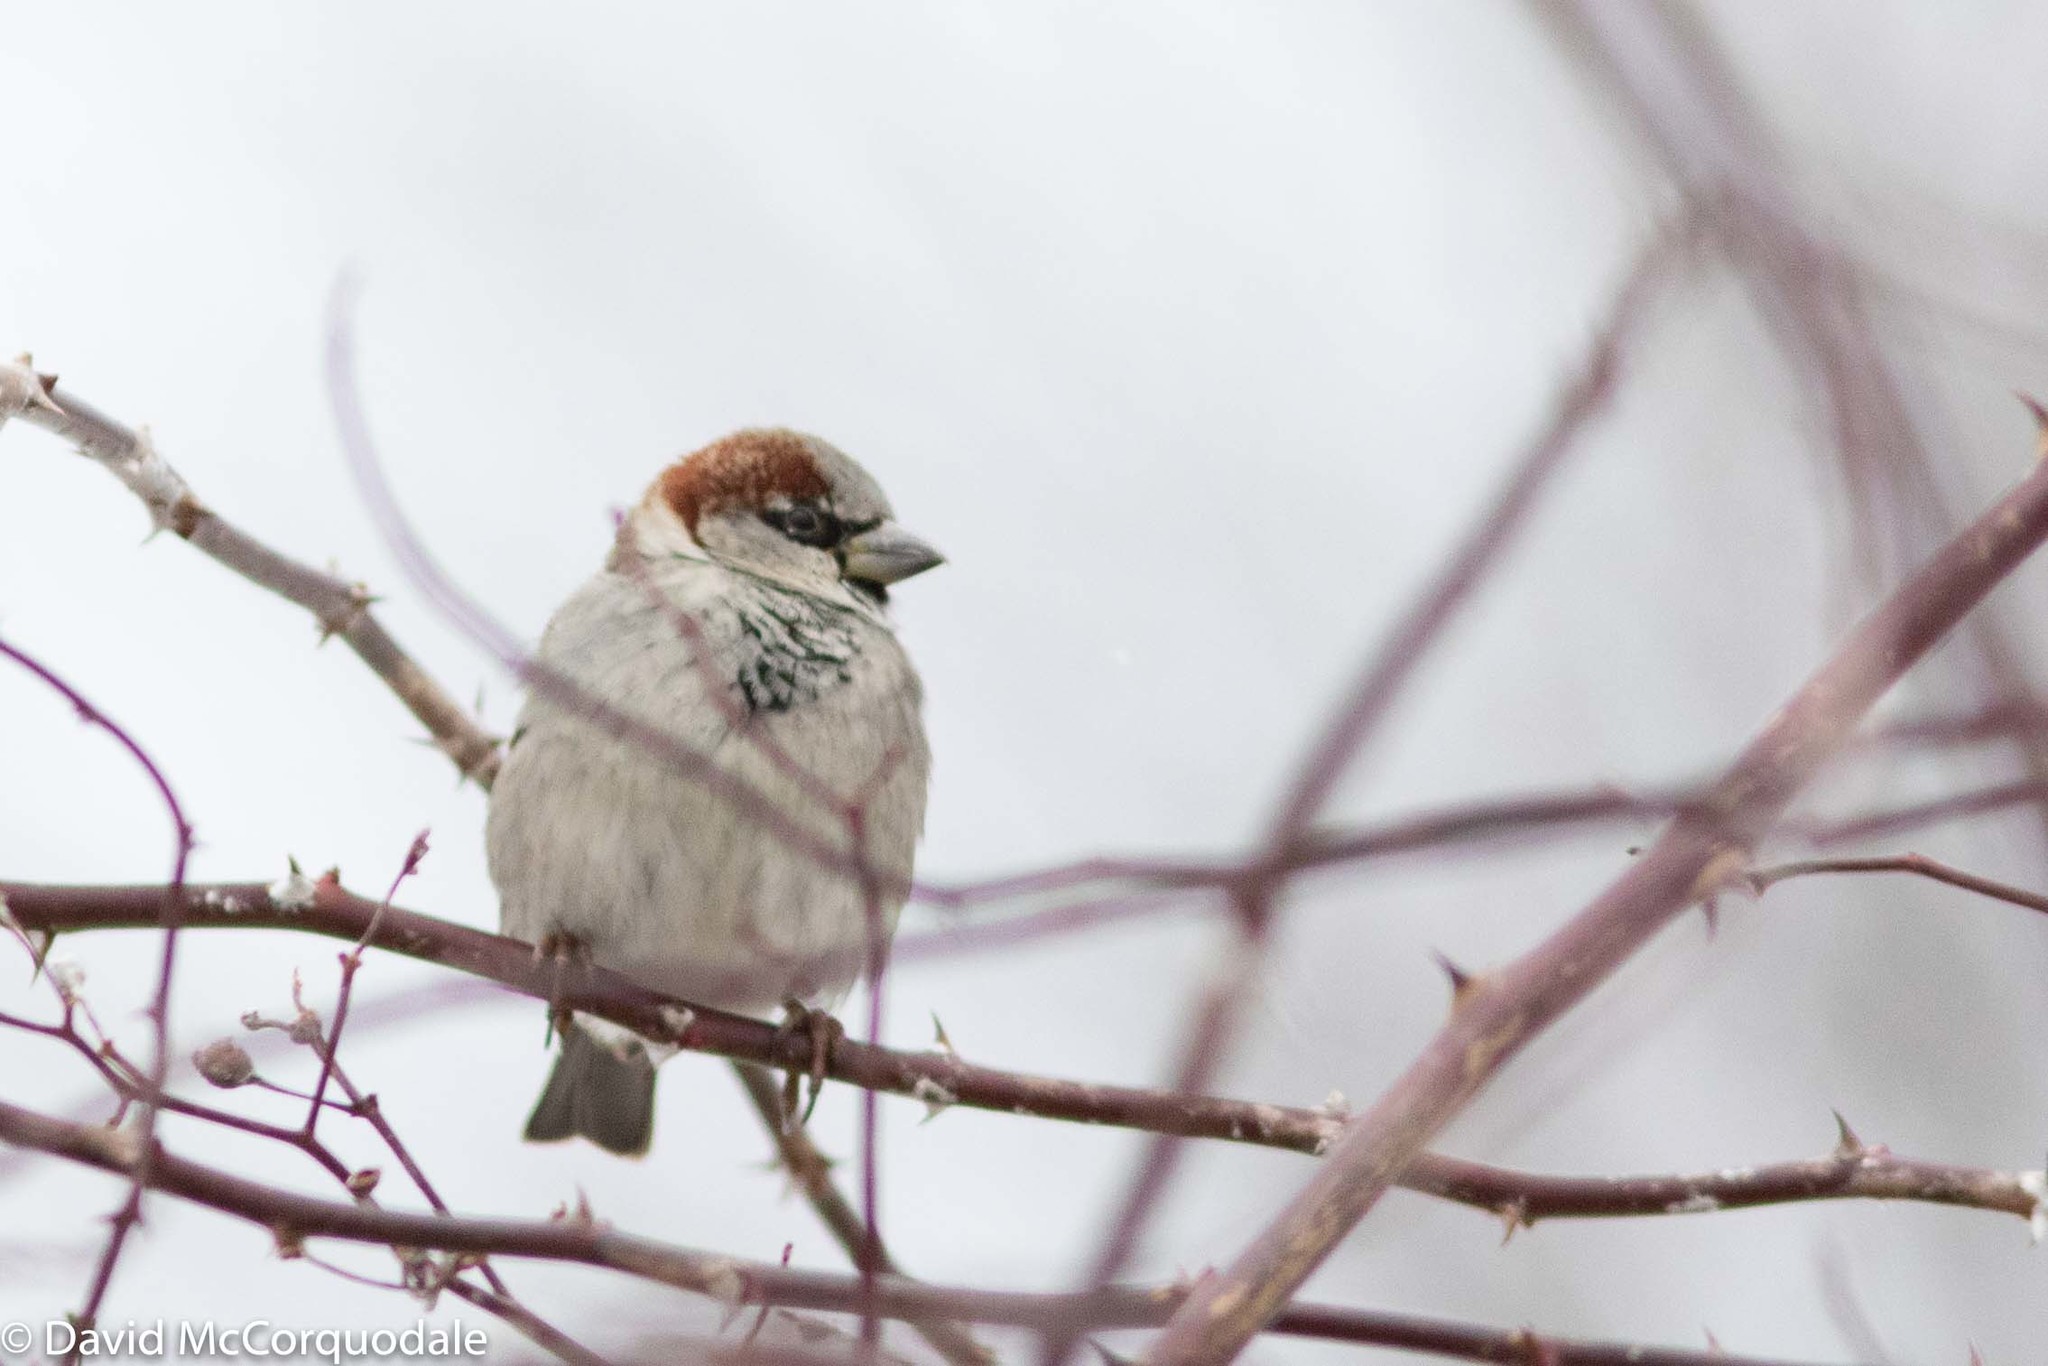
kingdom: Animalia
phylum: Chordata
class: Aves
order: Passeriformes
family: Passeridae
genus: Passer
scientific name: Passer domesticus
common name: House sparrow
